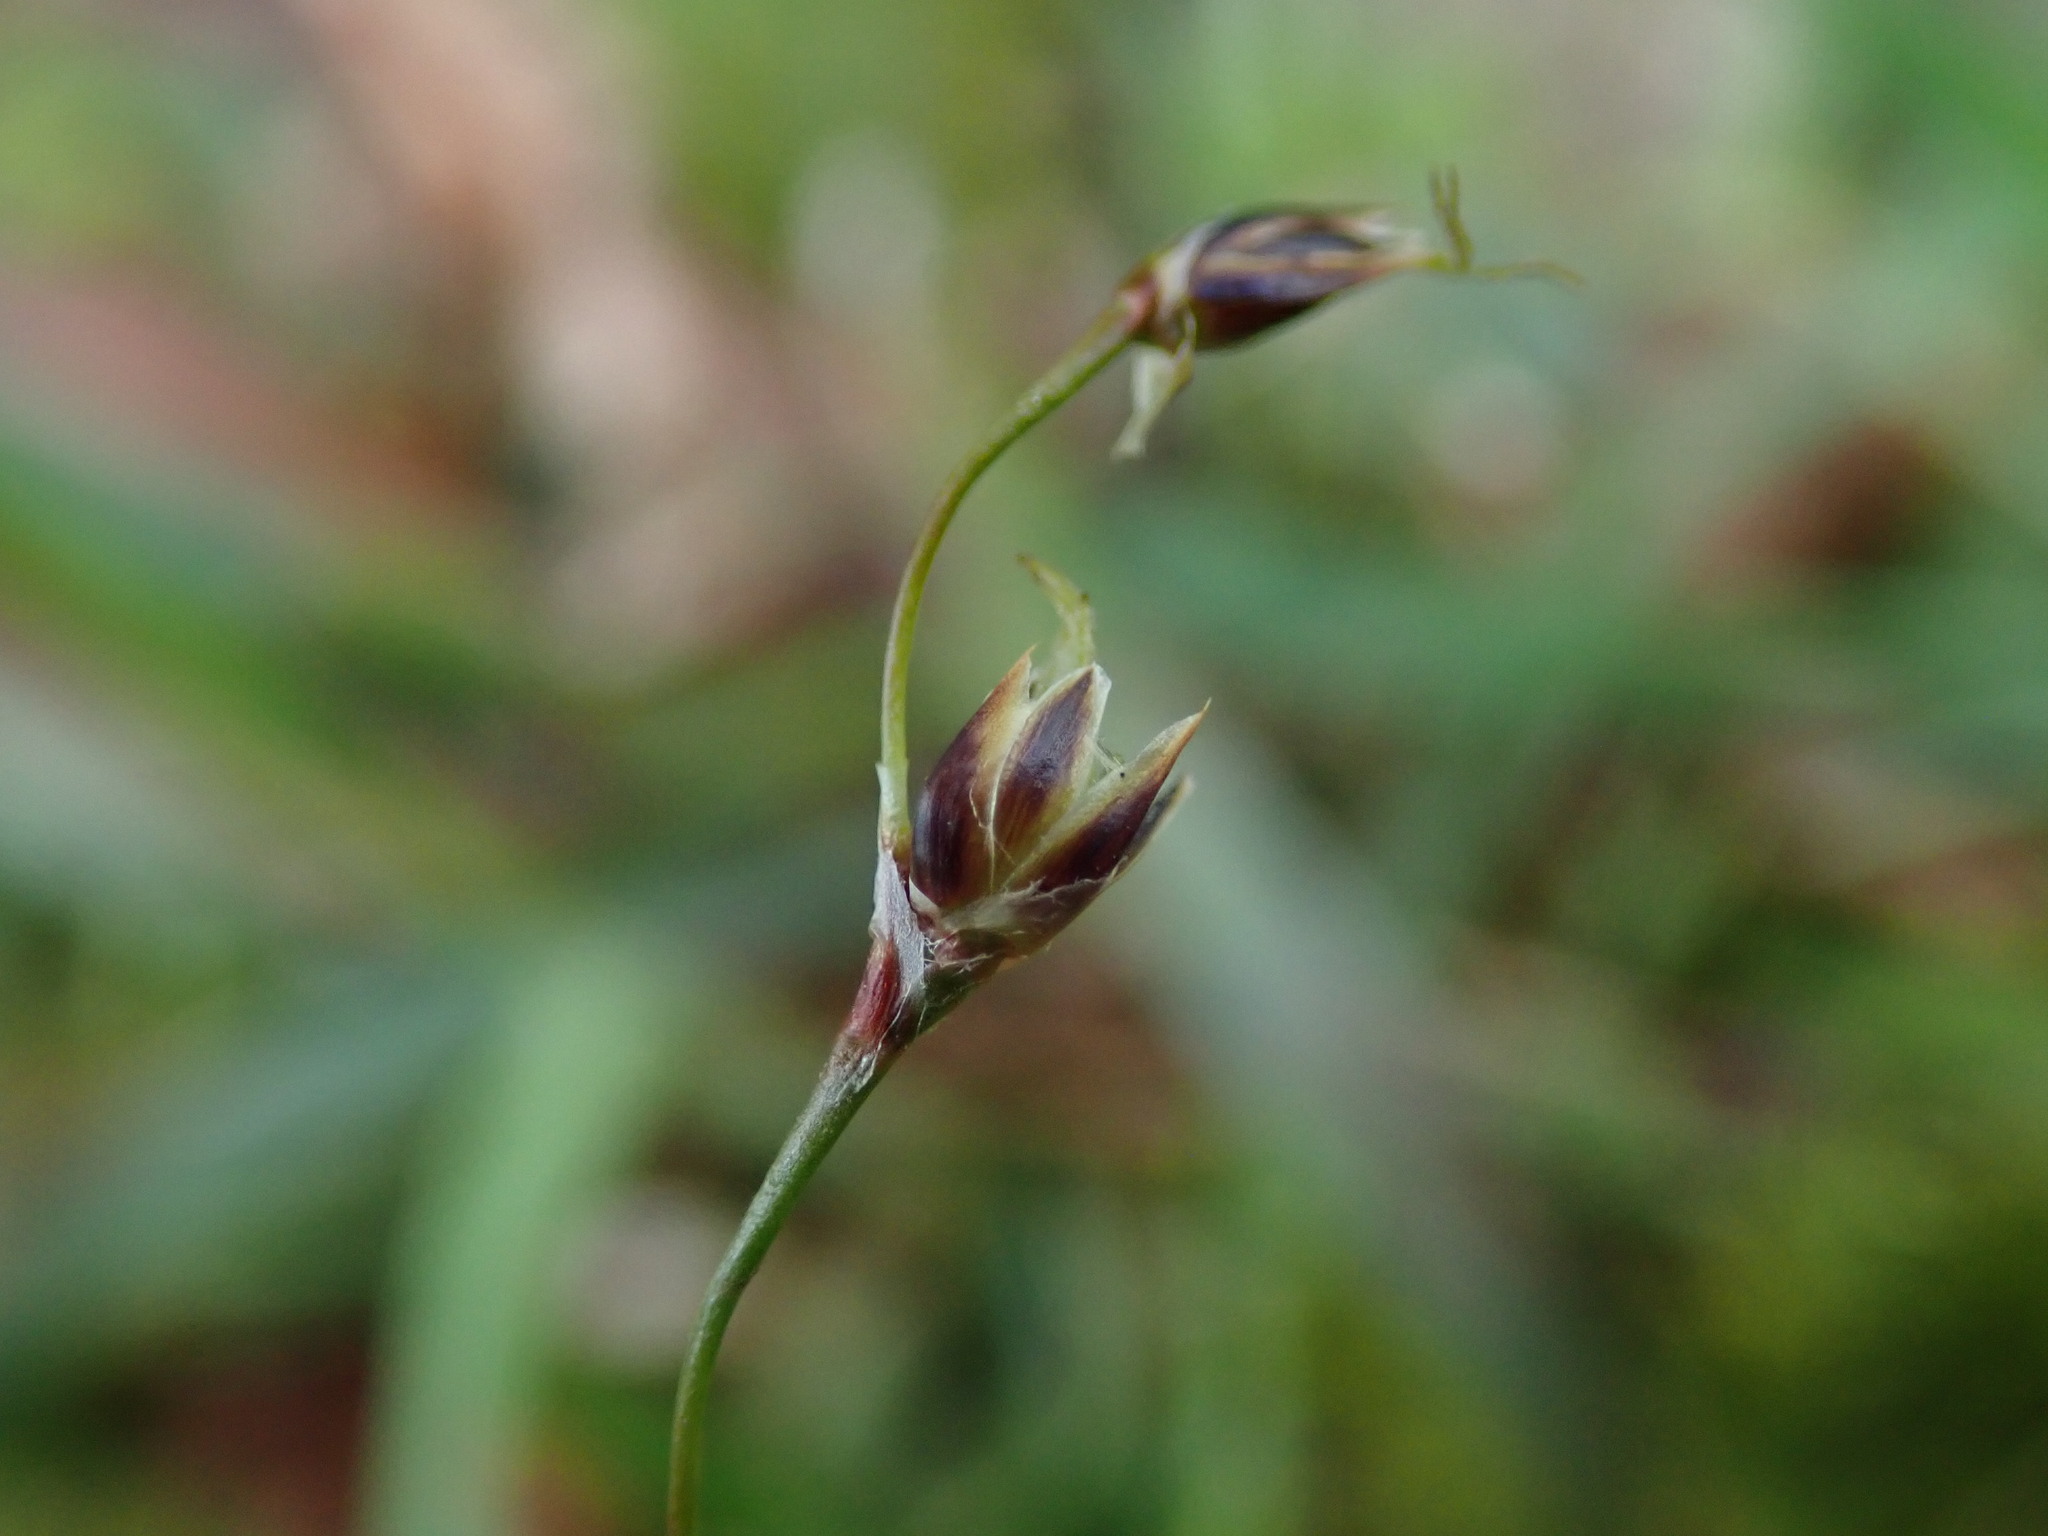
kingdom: Plantae
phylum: Tracheophyta
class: Liliopsida
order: Poales
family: Juncaceae
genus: Luzula
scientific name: Luzula pilosa
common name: Hairy wood-rush
